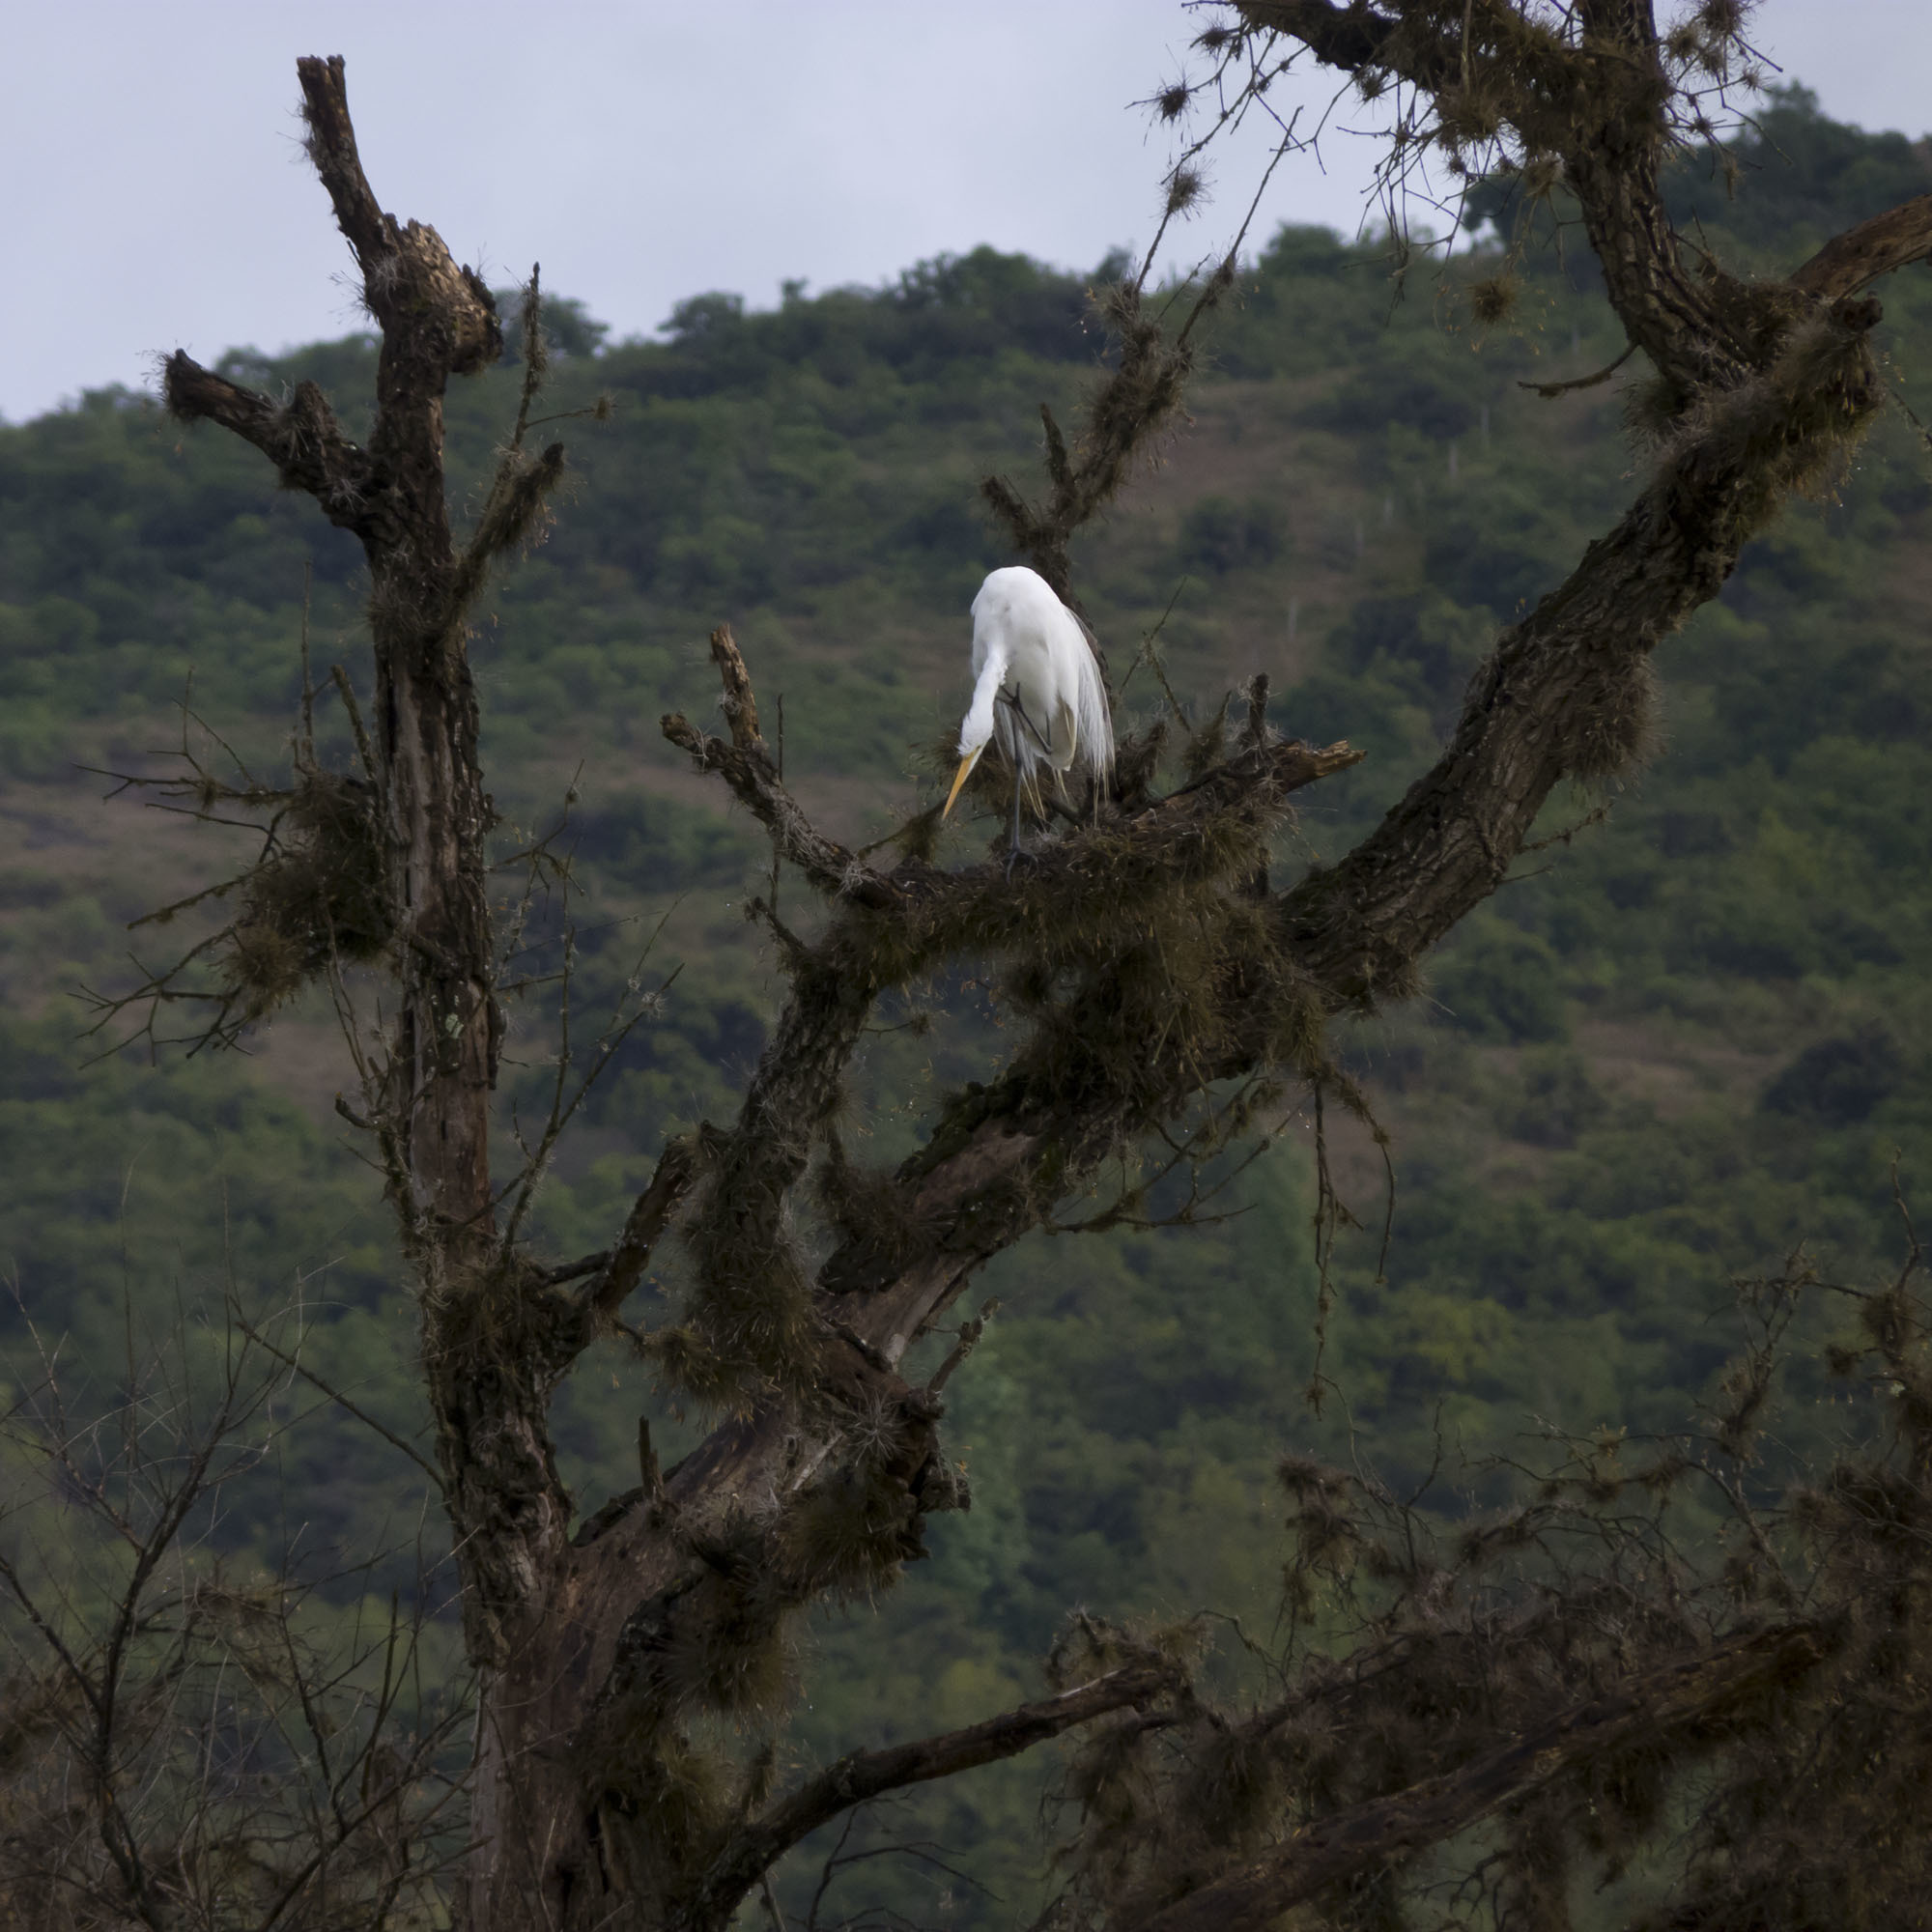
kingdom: Animalia
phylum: Chordata
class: Aves
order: Pelecaniformes
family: Ardeidae
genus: Ardea
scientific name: Ardea alba
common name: Great egret
